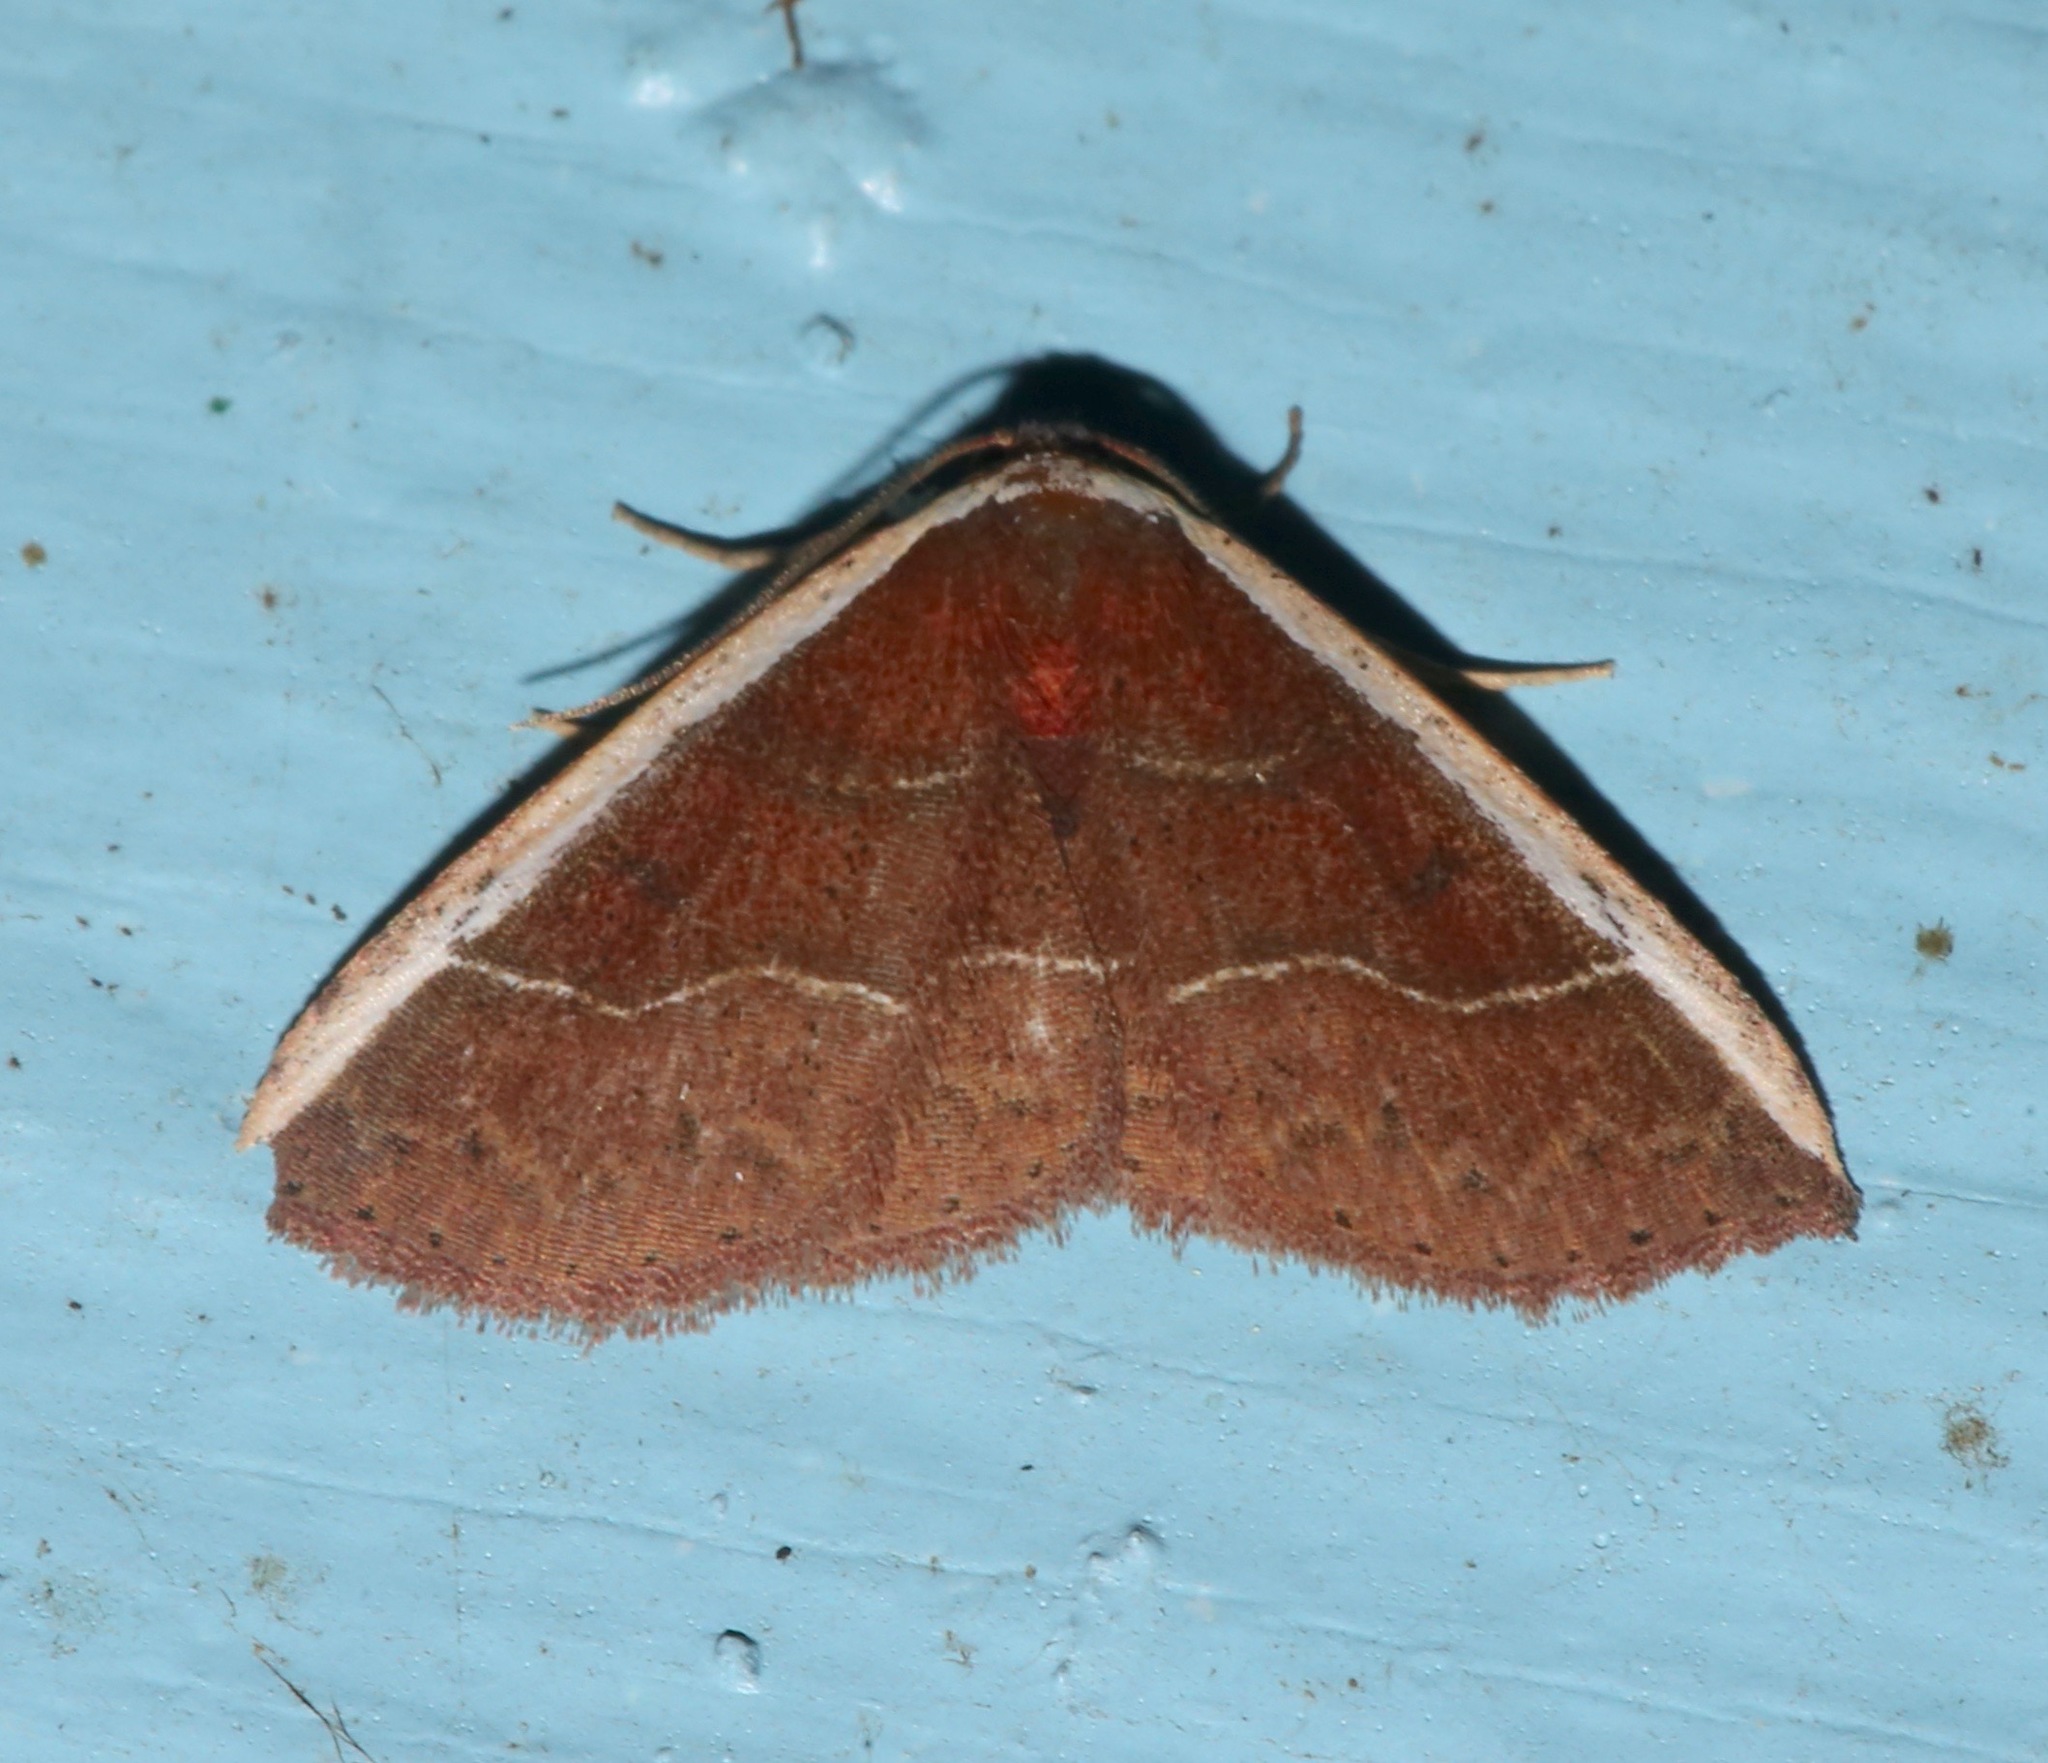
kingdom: Animalia
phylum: Arthropoda
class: Insecta
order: Lepidoptera
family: Noctuidae
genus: Ozarba
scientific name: Ozarba albocostaliata
